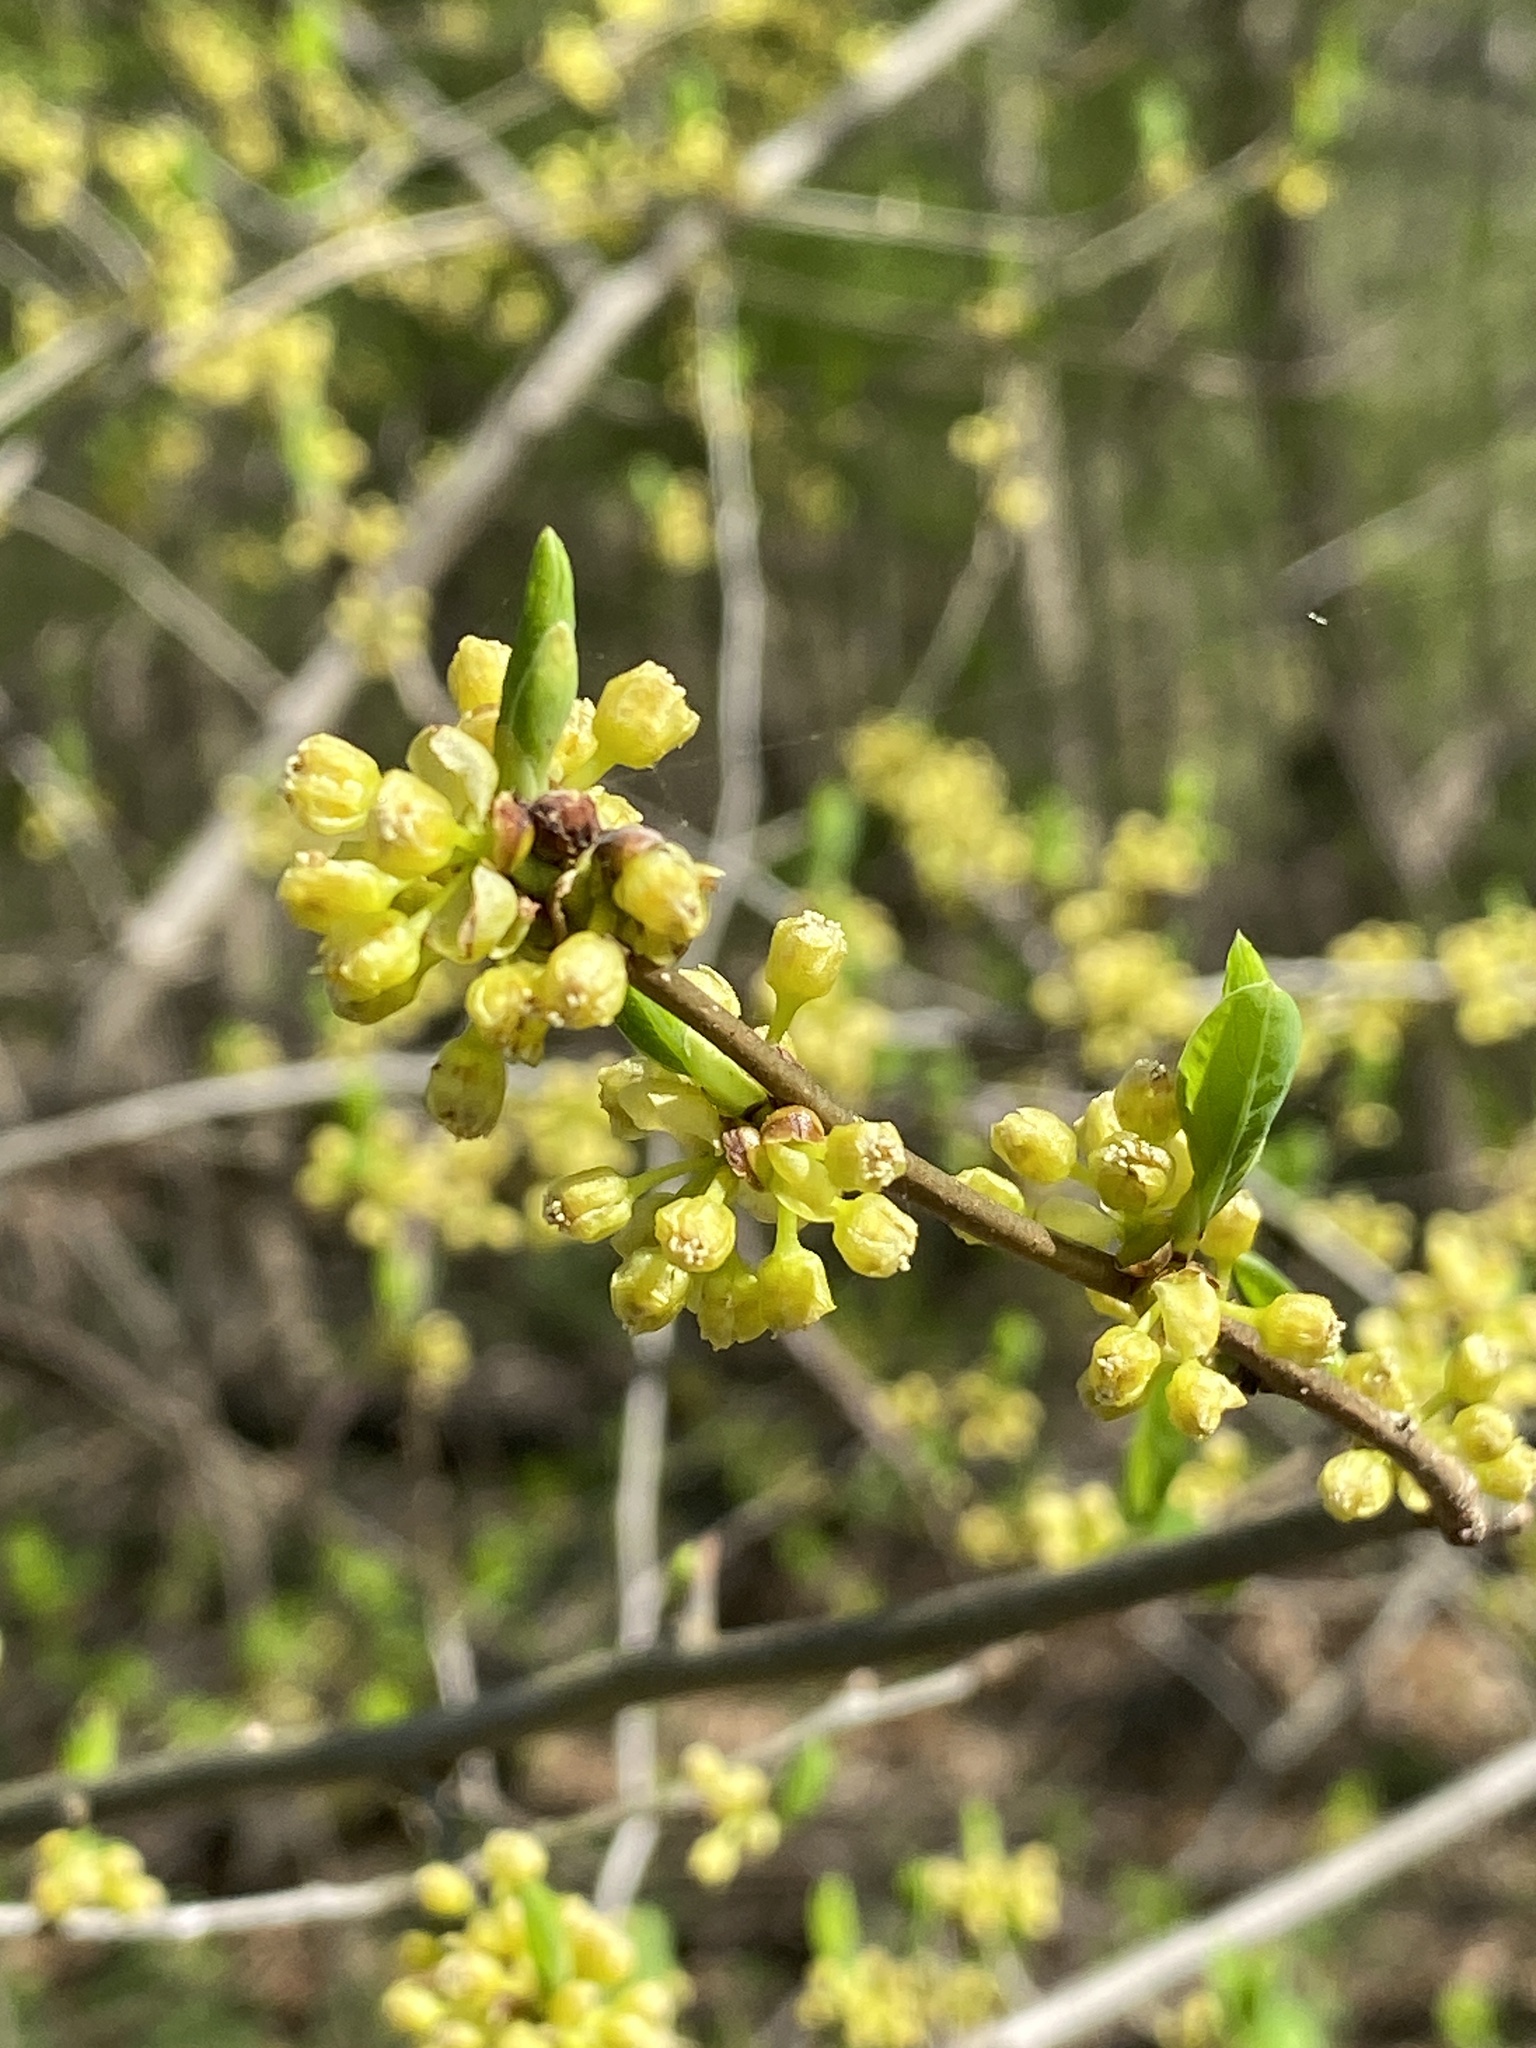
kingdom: Plantae
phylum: Tracheophyta
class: Magnoliopsida
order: Laurales
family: Lauraceae
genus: Lindera
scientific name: Lindera benzoin
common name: Spicebush
